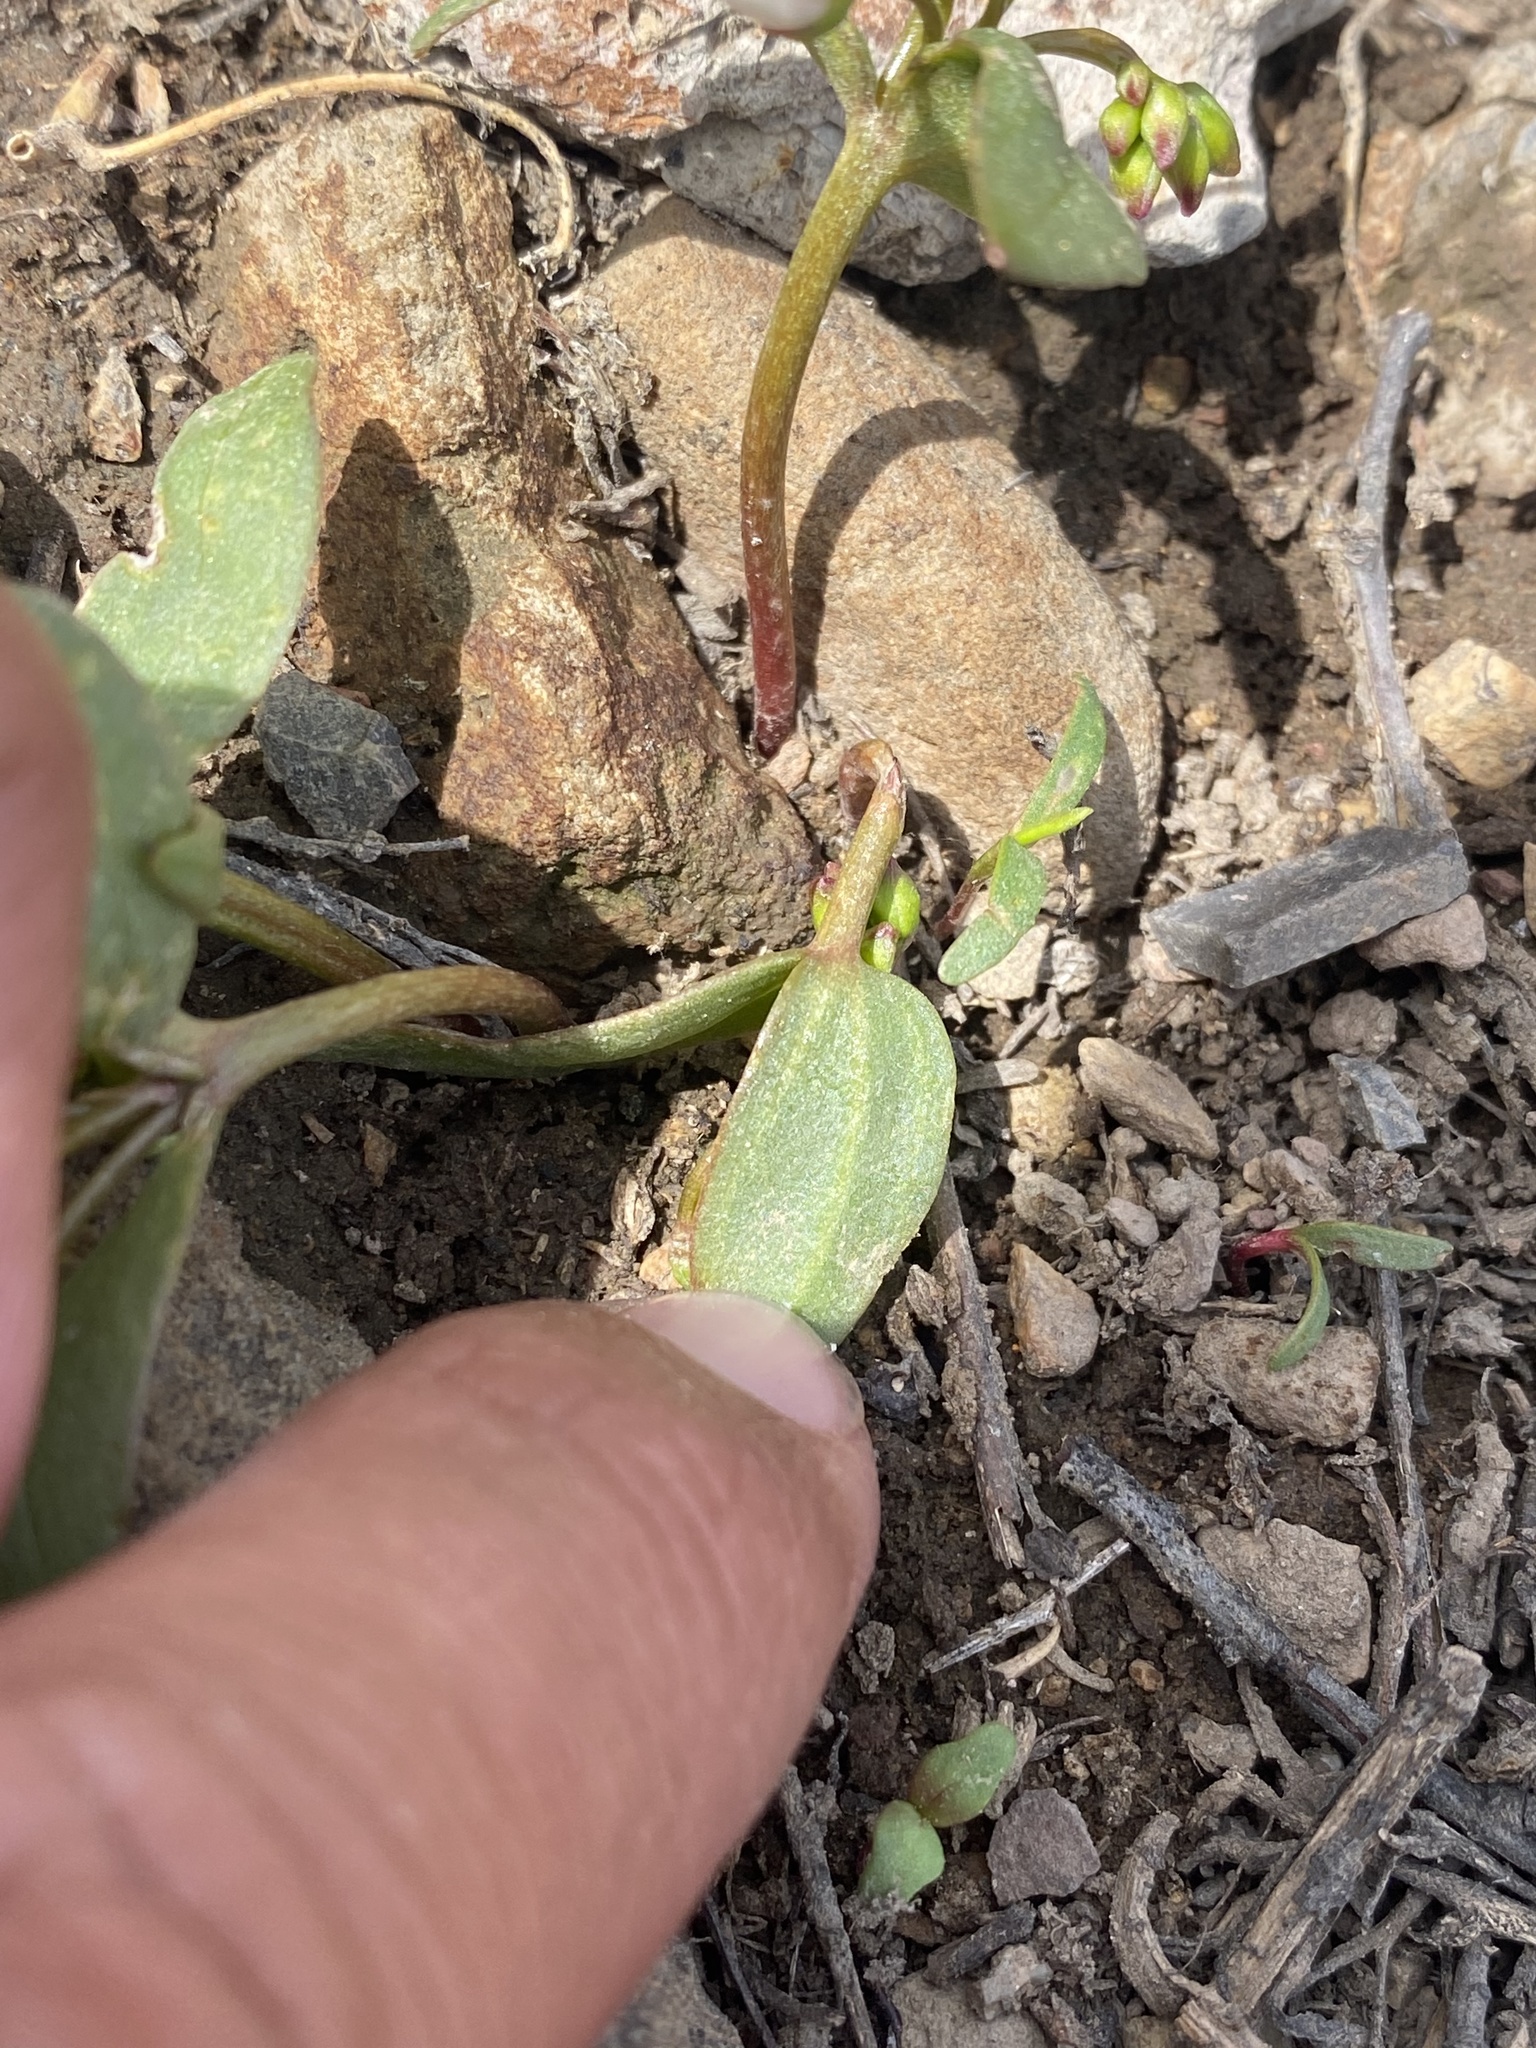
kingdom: Plantae
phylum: Tracheophyta
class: Magnoliopsida
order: Caryophyllales
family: Montiaceae
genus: Claytonia
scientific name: Claytonia lanceolata
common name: Western spring-beauty
